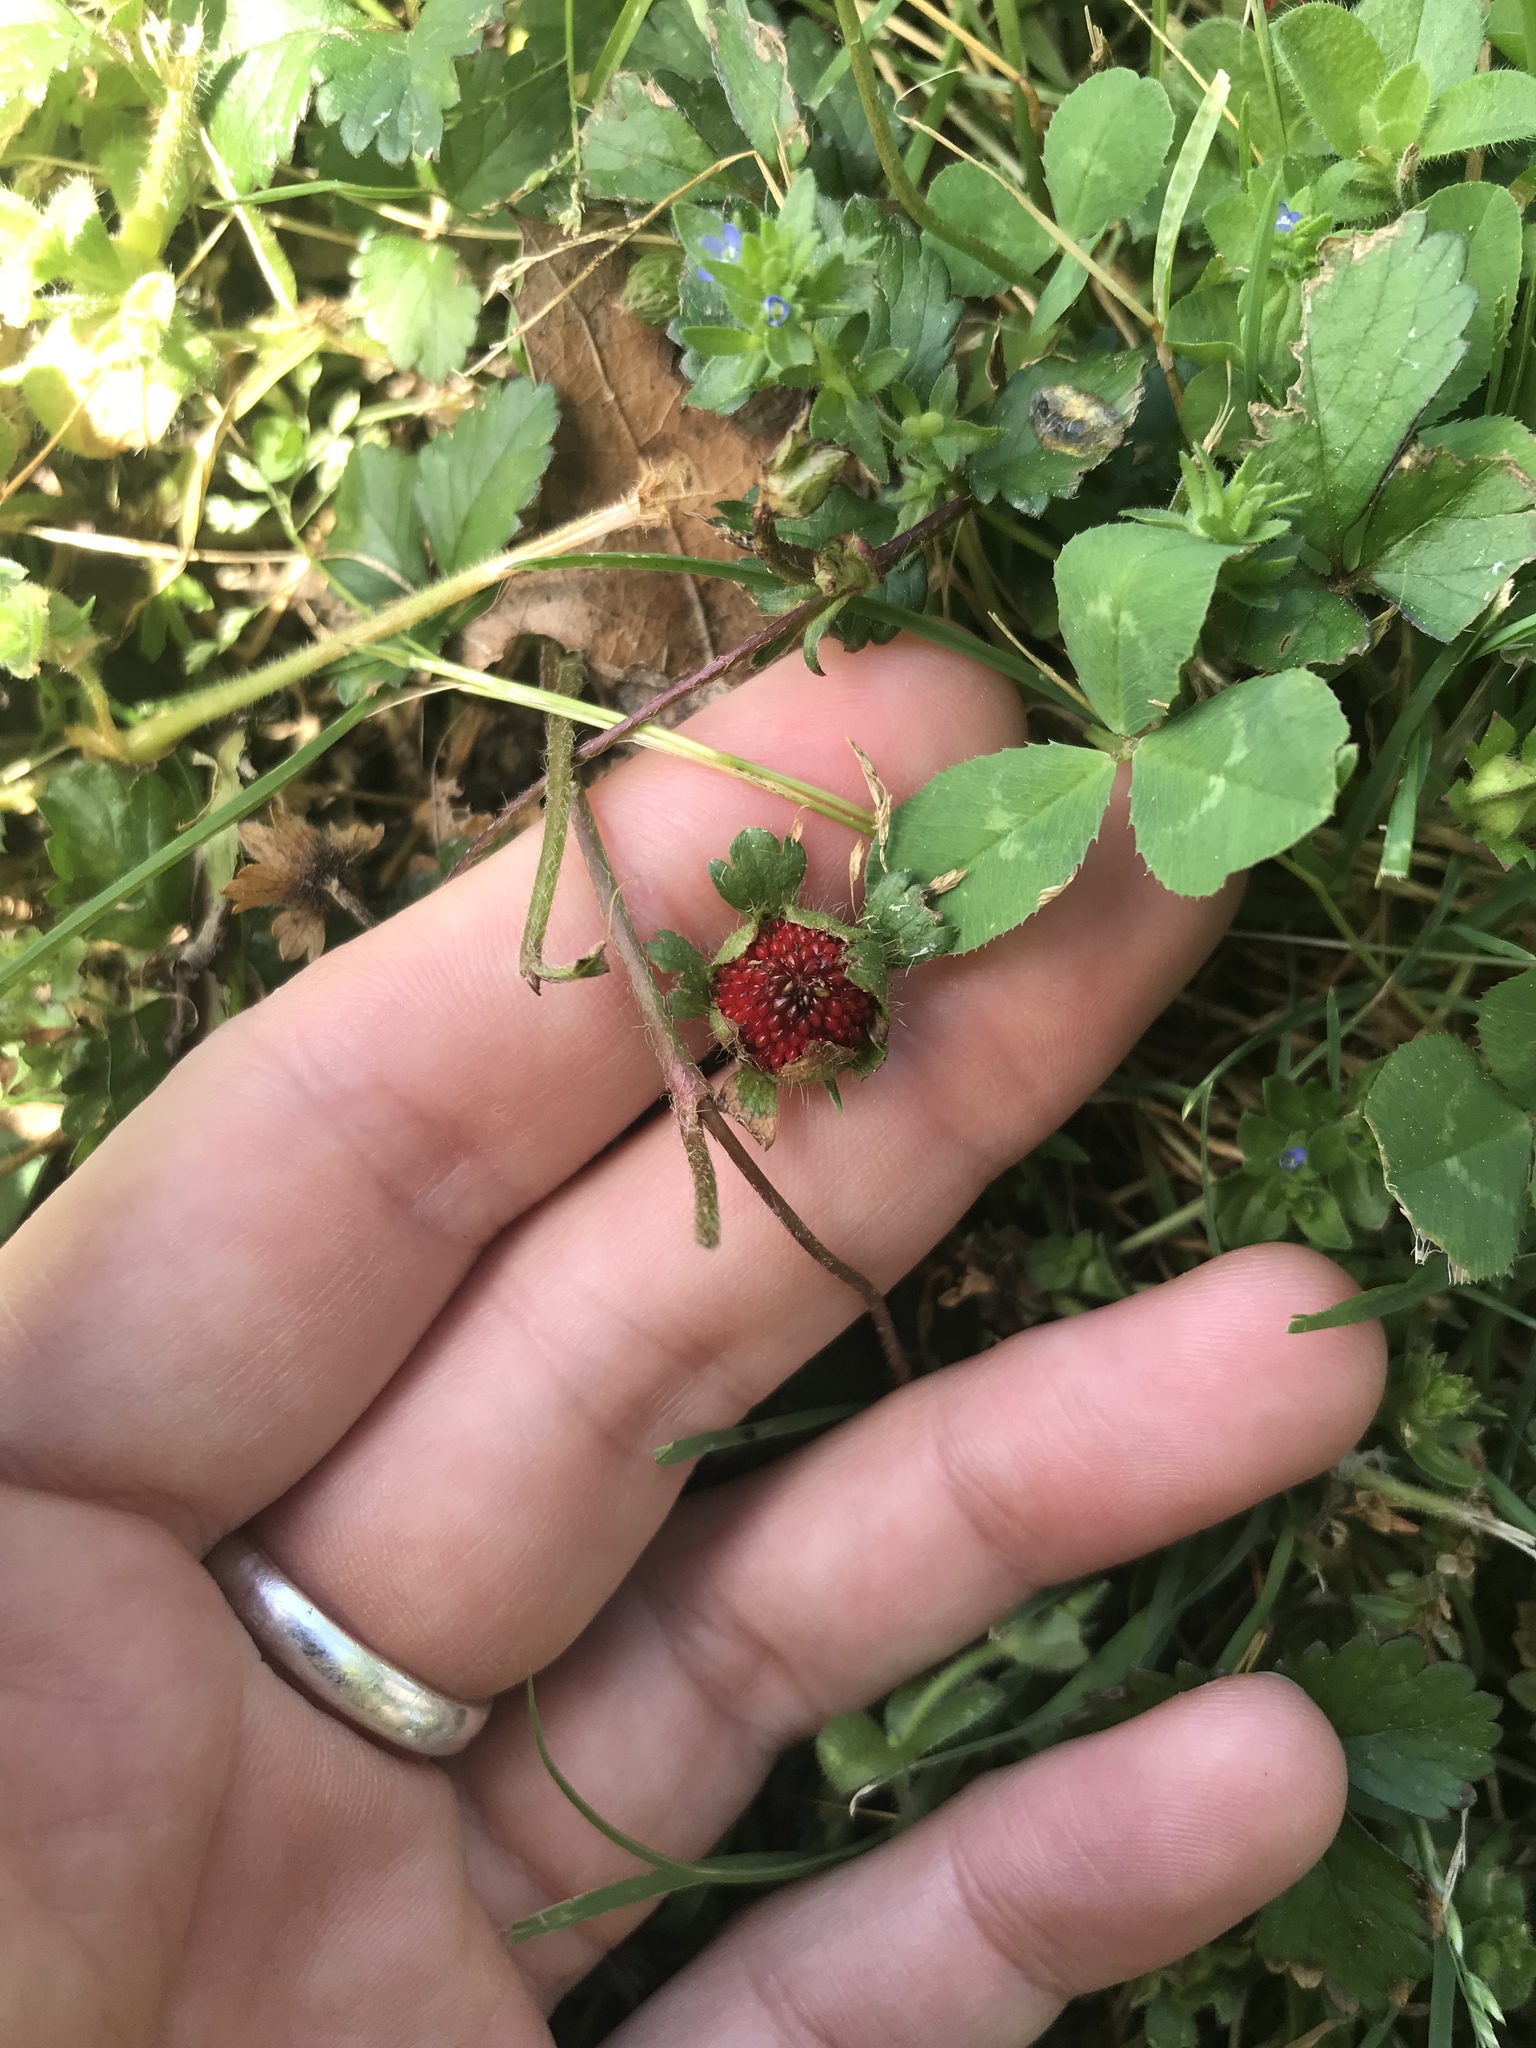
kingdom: Plantae
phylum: Tracheophyta
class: Magnoliopsida
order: Rosales
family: Rosaceae
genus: Potentilla
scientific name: Potentilla indica
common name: Yellow-flowered strawberry
